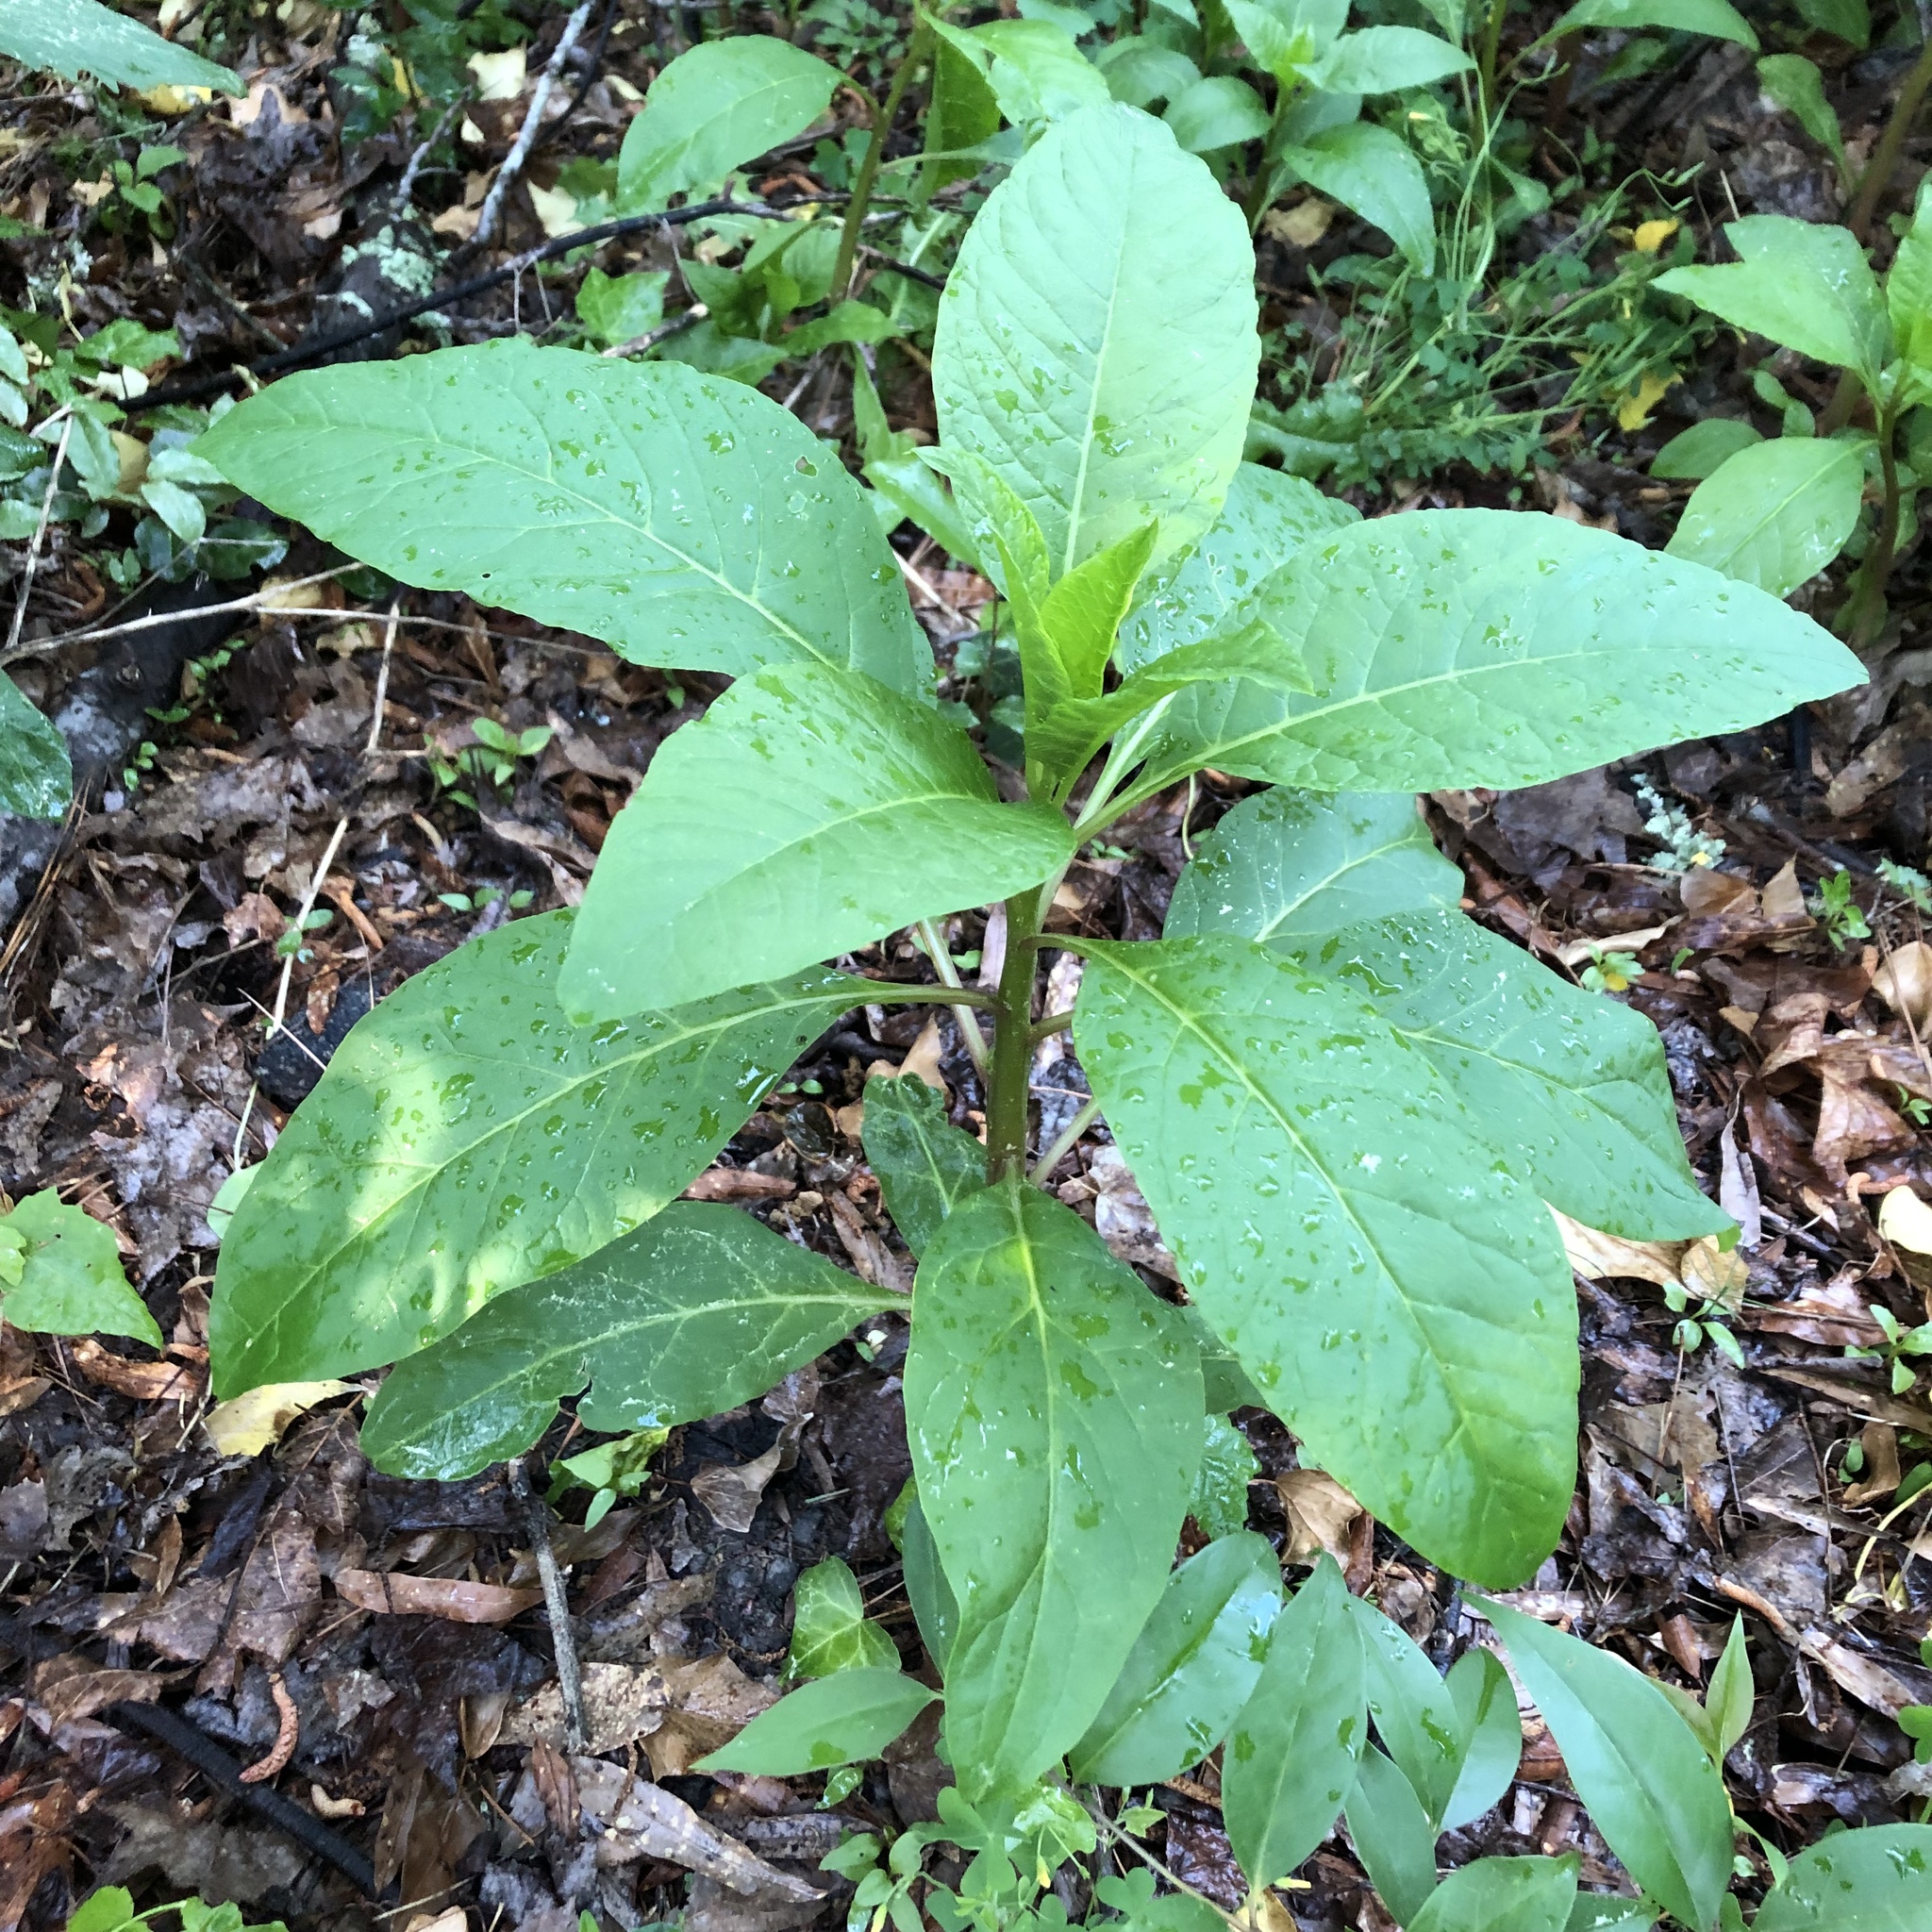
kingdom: Plantae
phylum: Tracheophyta
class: Magnoliopsida
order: Caryophyllales
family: Phytolaccaceae
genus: Phytolacca
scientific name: Phytolacca americana
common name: American pokeweed
